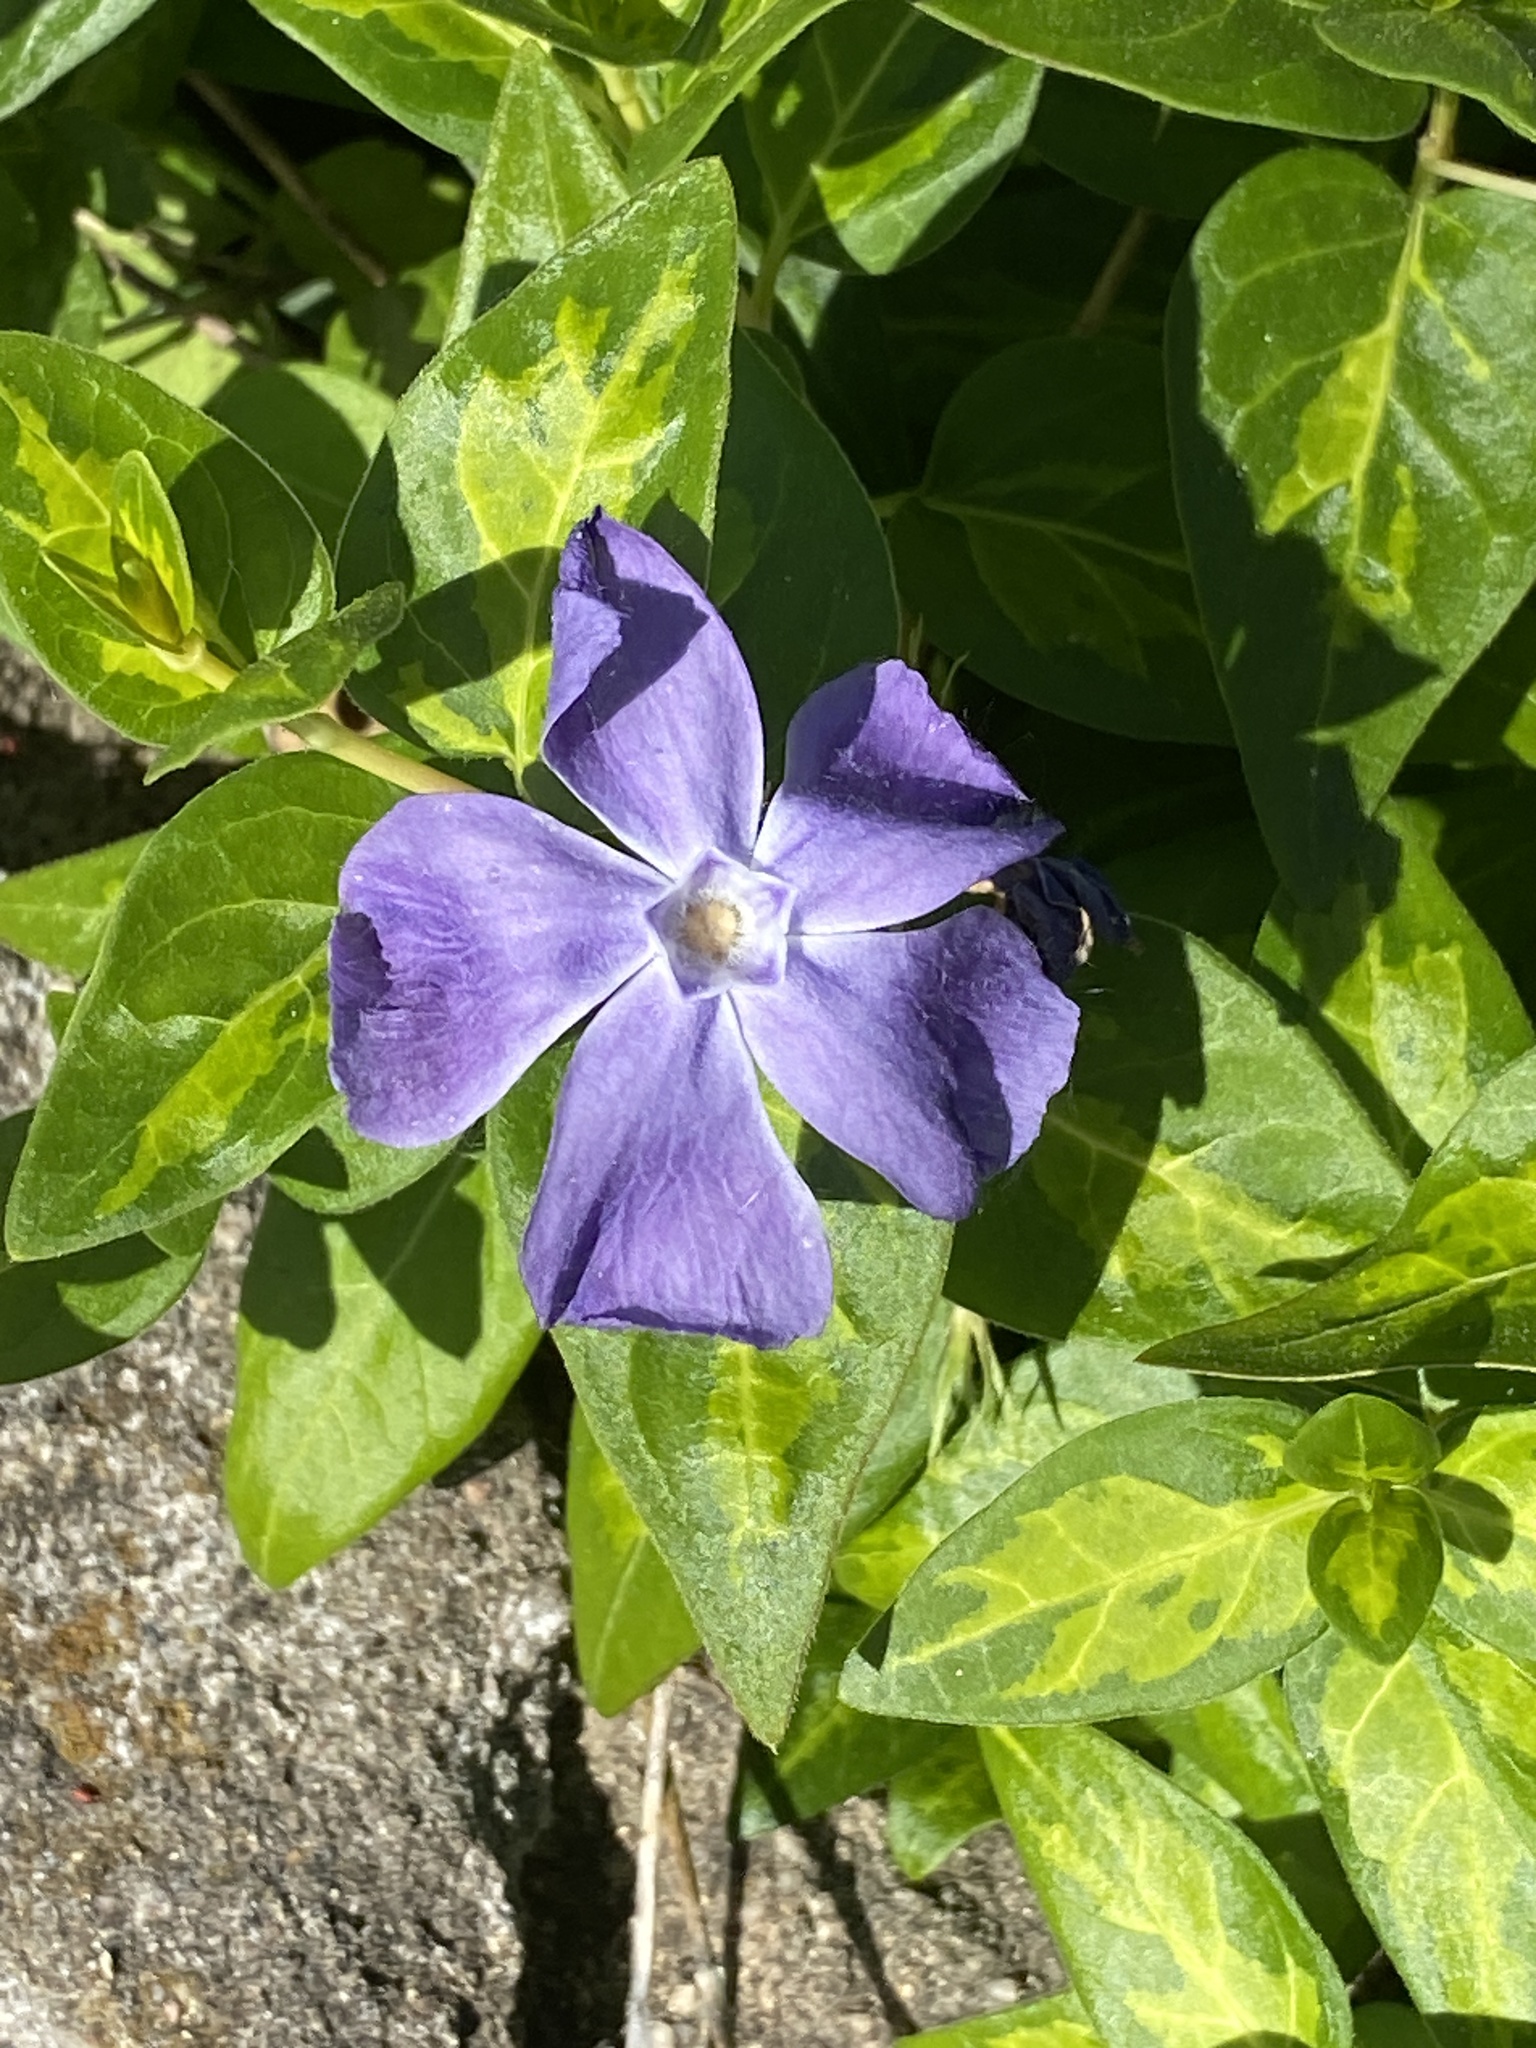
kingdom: Plantae
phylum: Tracheophyta
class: Magnoliopsida
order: Gentianales
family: Apocynaceae
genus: Vinca
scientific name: Vinca major
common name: Greater periwinkle
